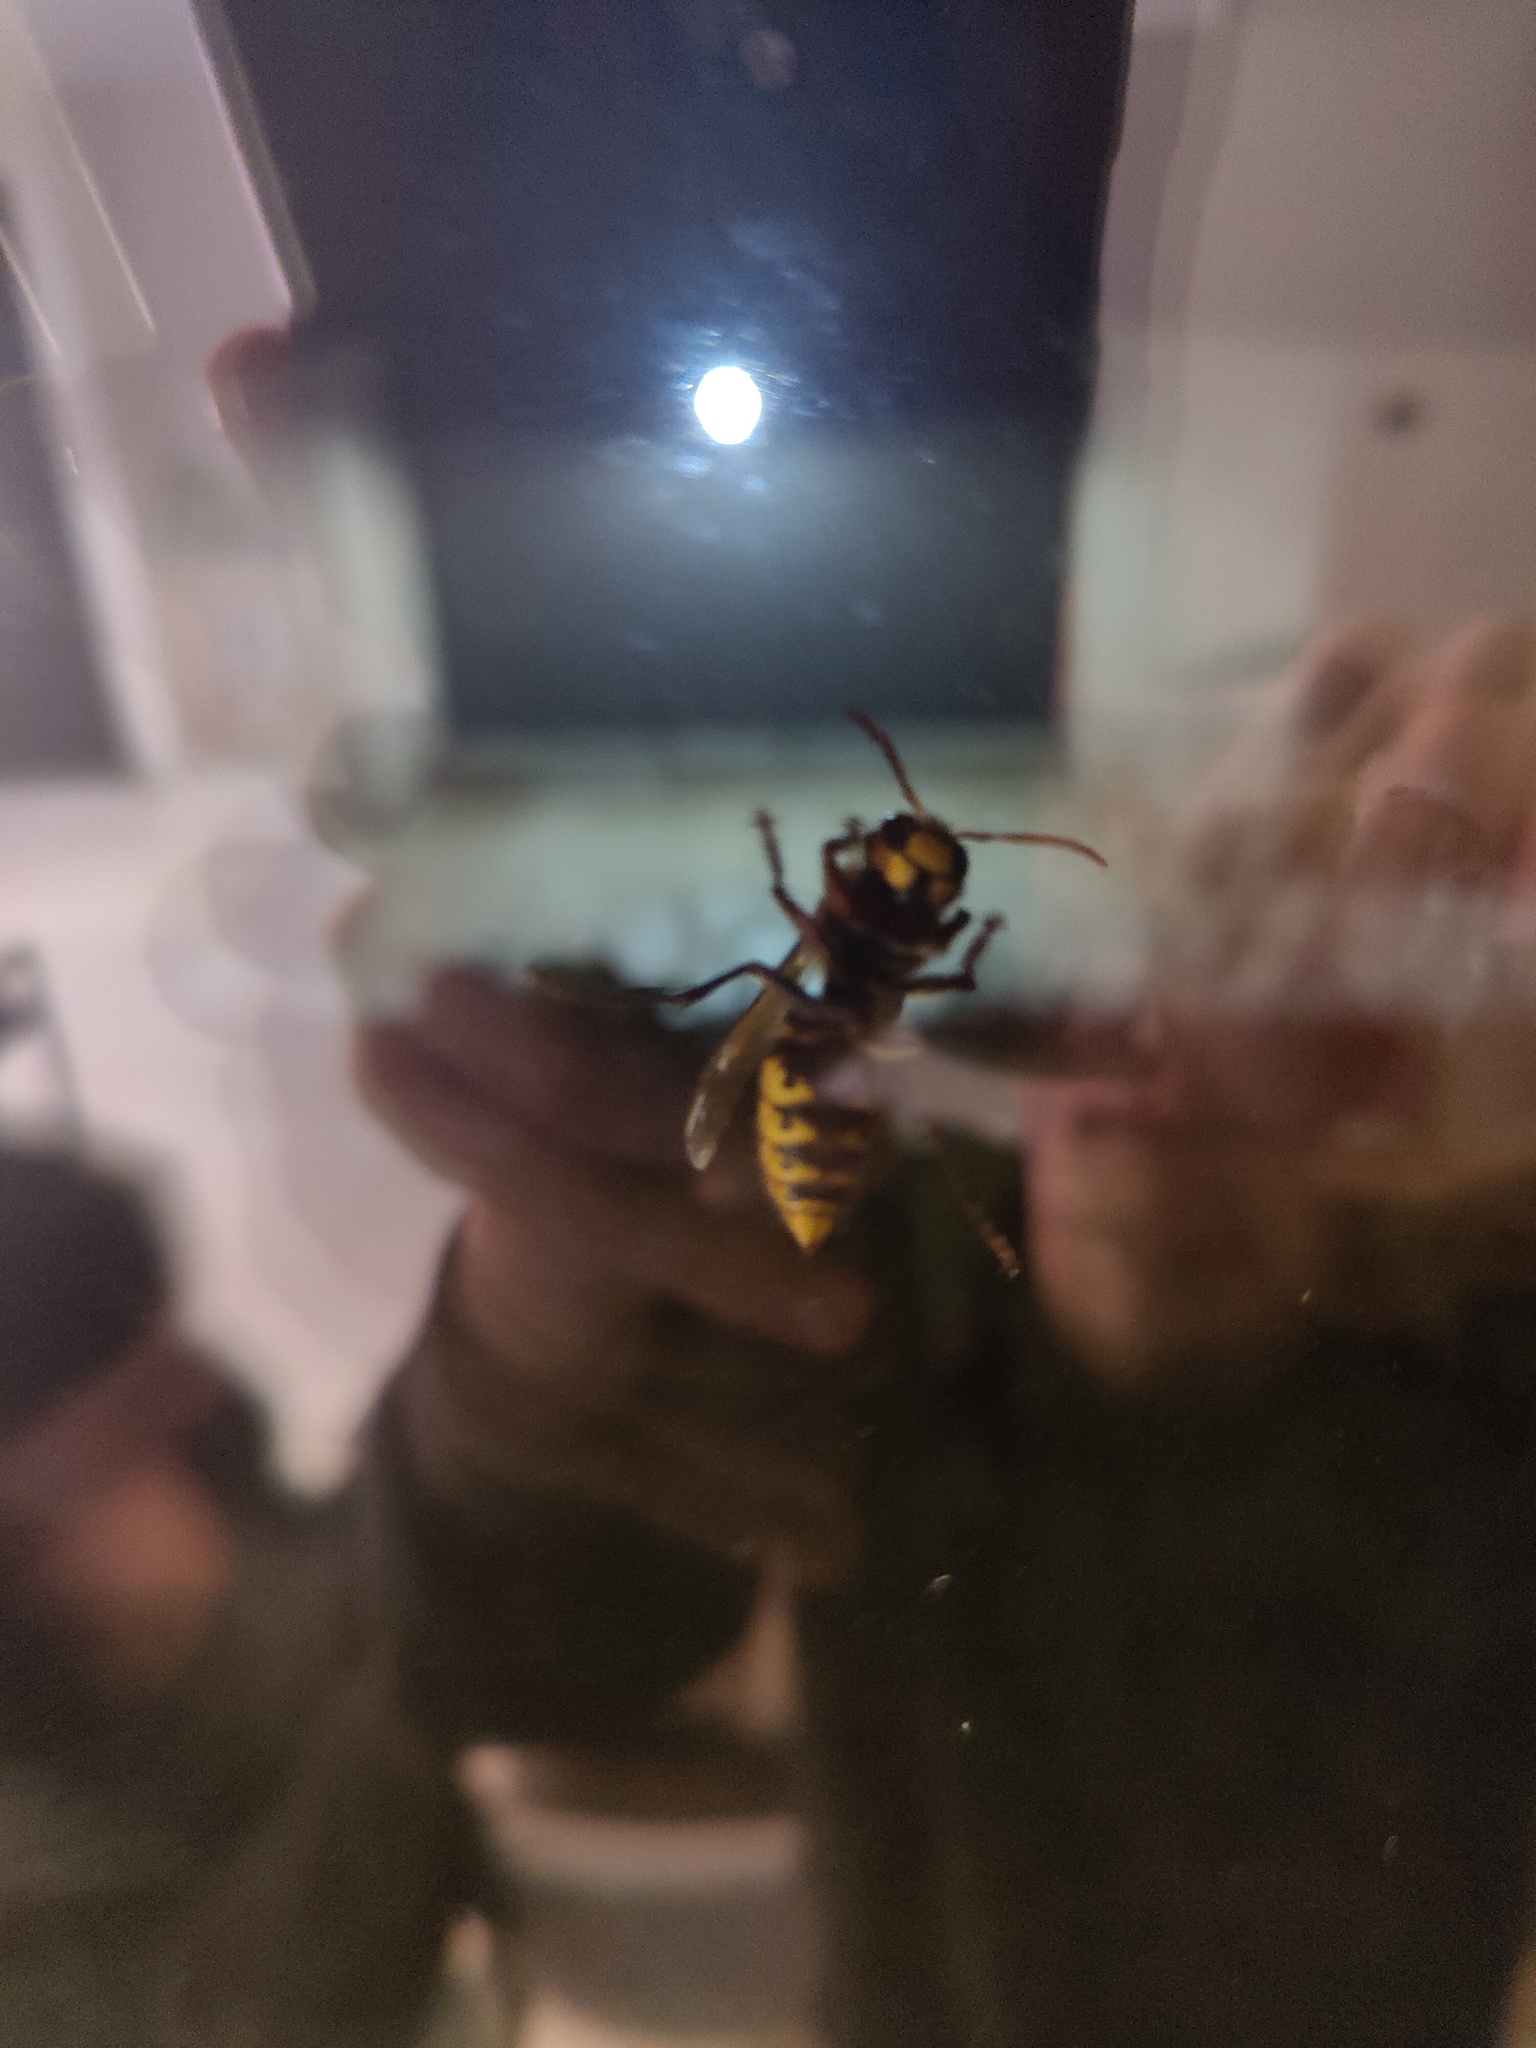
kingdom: Animalia
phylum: Arthropoda
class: Insecta
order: Hymenoptera
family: Vespidae
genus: Vespa
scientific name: Vespa crabro
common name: Hornet
